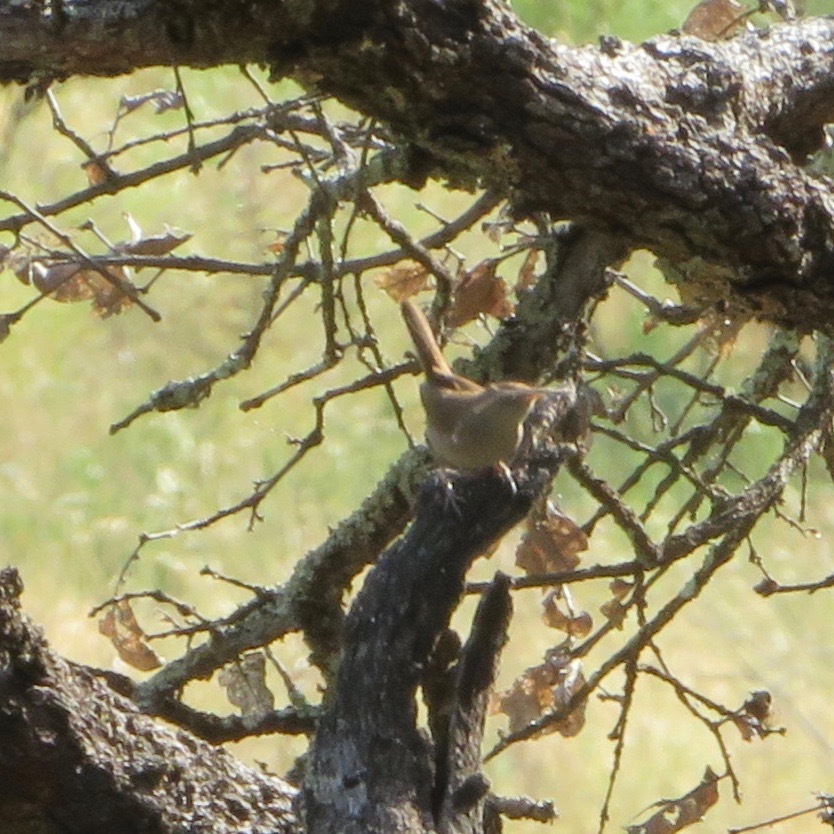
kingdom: Animalia
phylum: Chordata
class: Aves
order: Passeriformes
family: Troglodytidae
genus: Troglodytes
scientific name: Troglodytes aedon
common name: House wren
